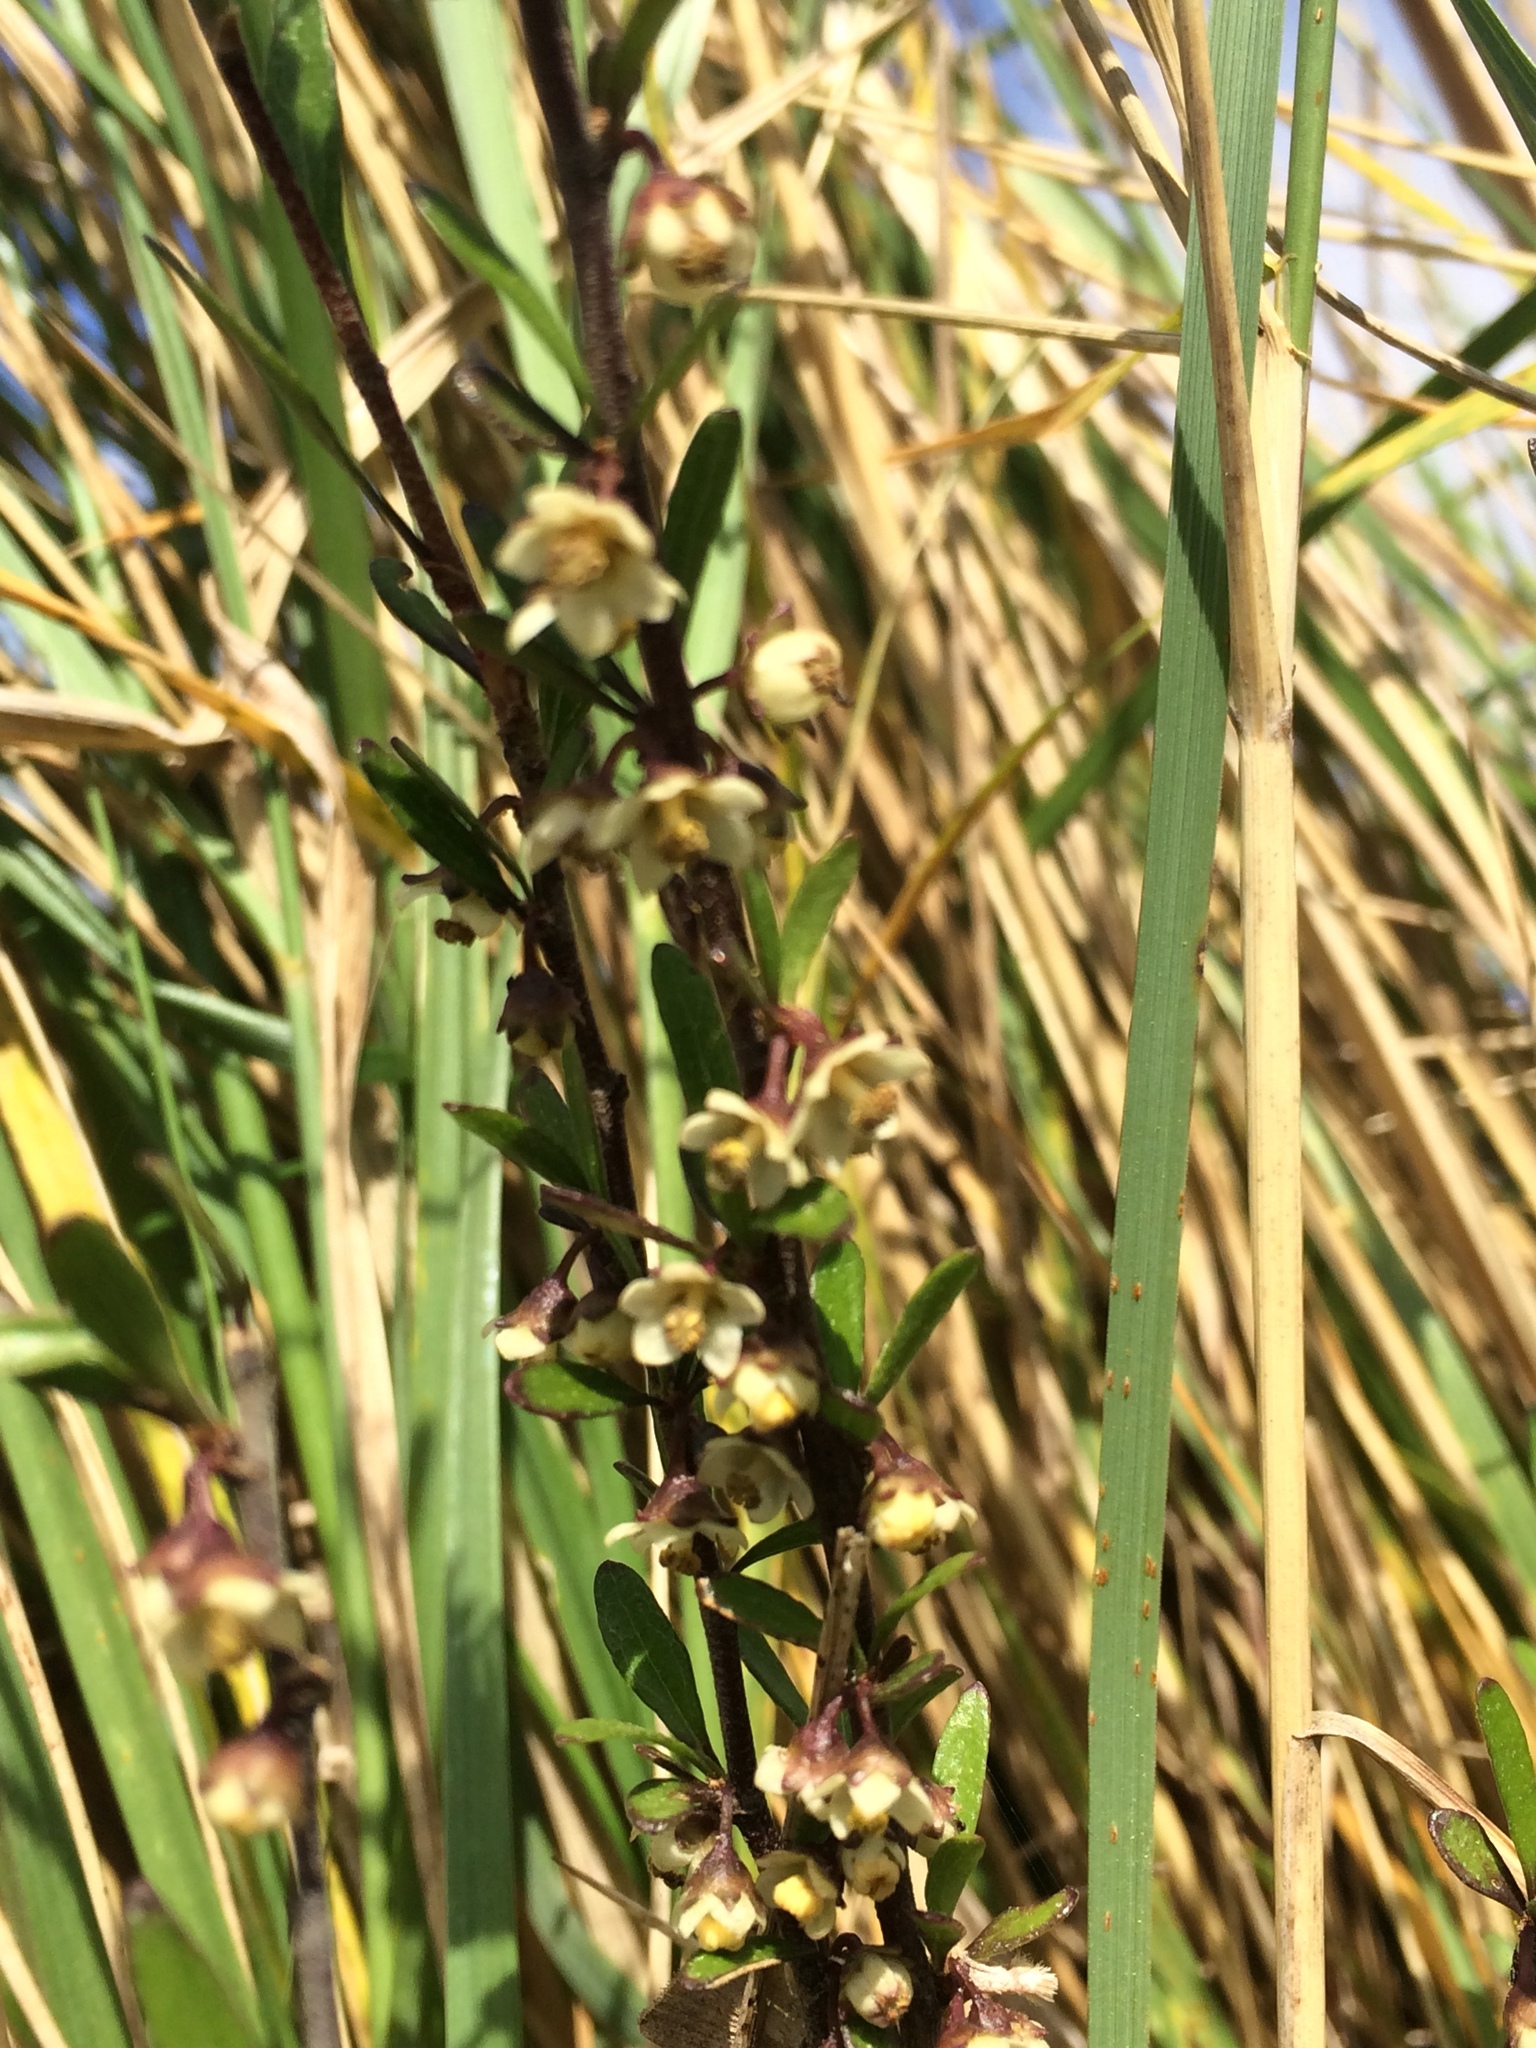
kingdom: Plantae
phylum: Tracheophyta
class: Magnoliopsida
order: Malvales
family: Malvaceae
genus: Plagianthus
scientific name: Plagianthus divaricatus
